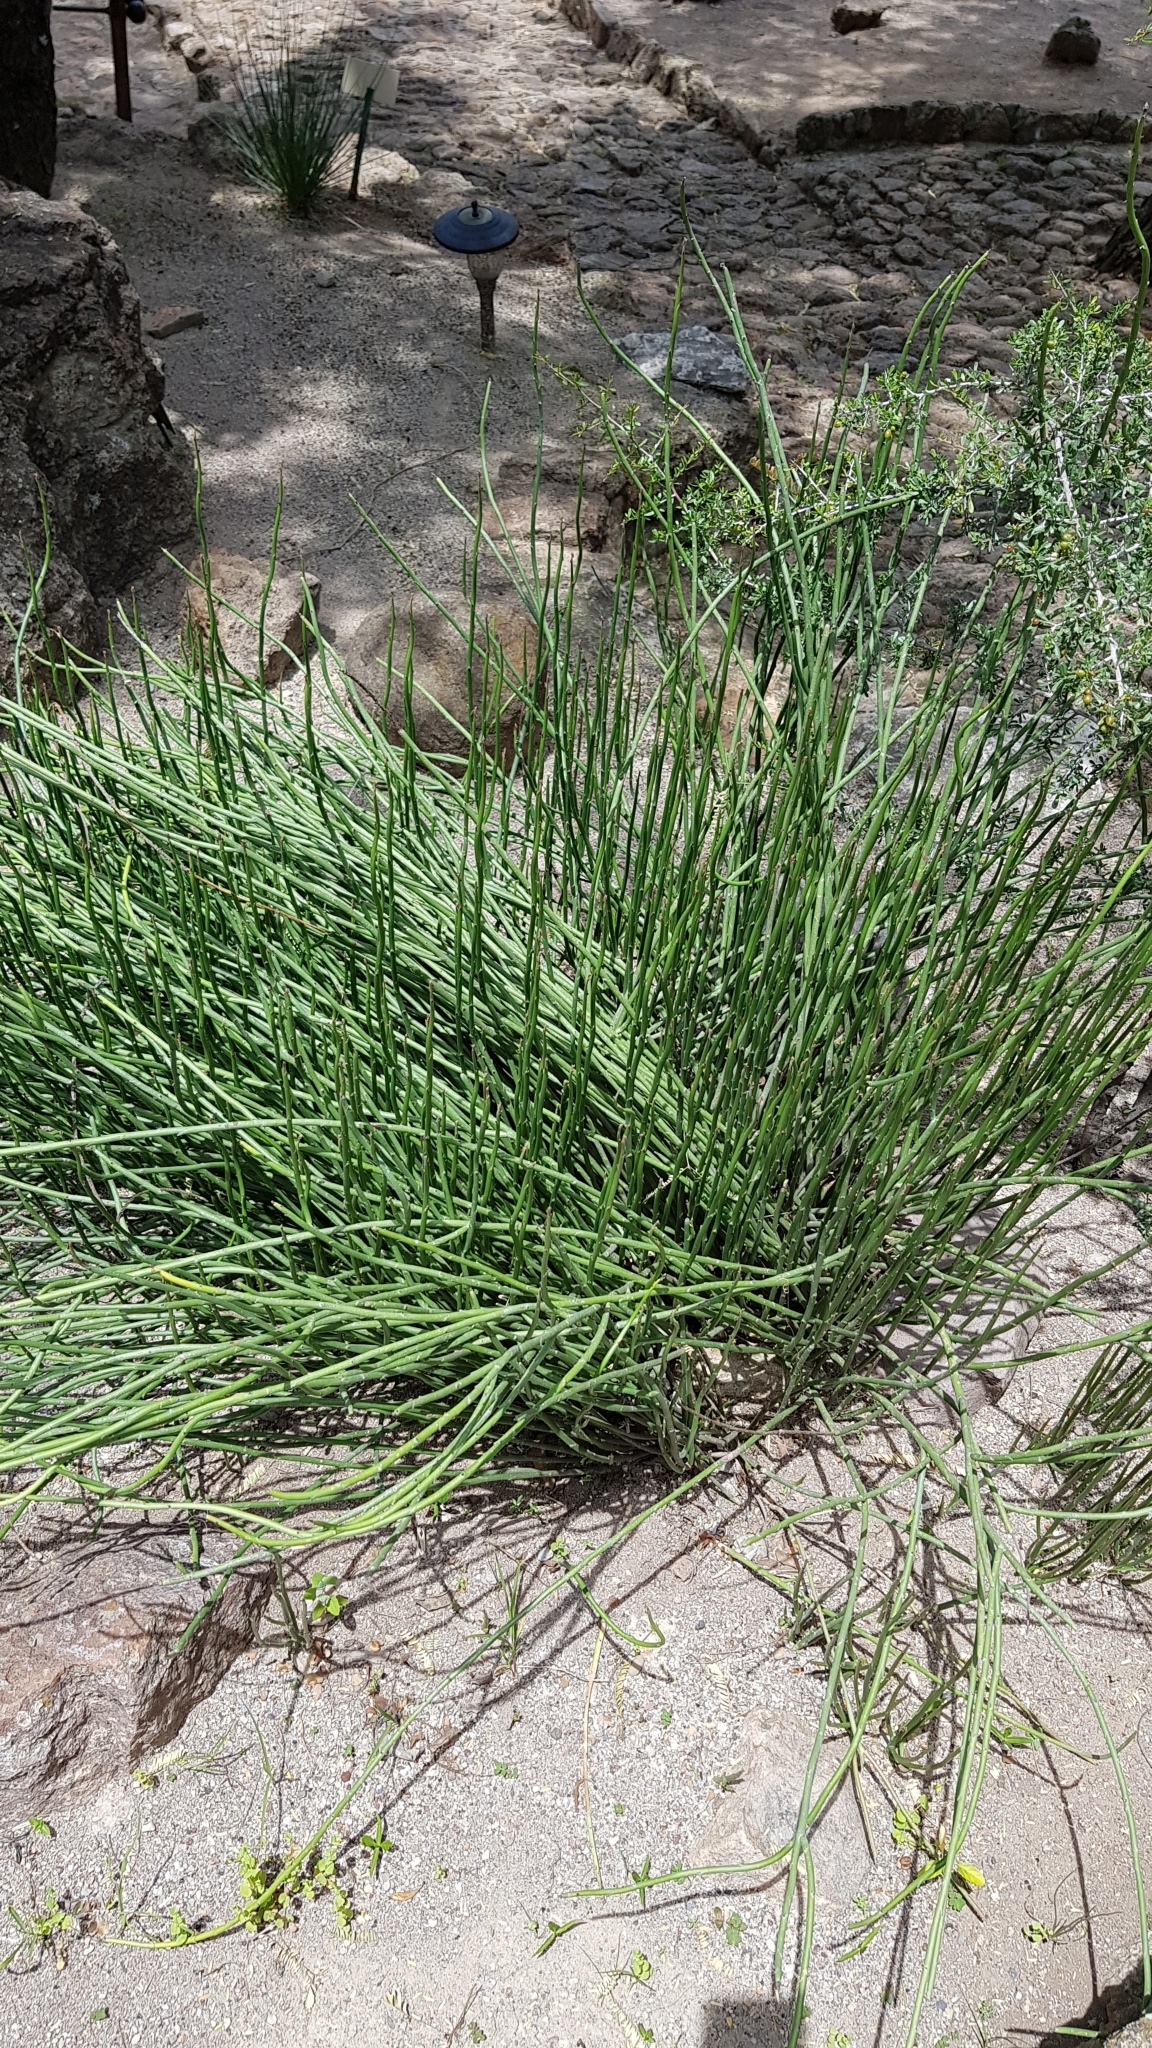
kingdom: Plantae
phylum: Tracheophyta
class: Magnoliopsida
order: Malpighiales
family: Euphorbiaceae
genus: Euphorbia
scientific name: Euphorbia antisyphilitica
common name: Candelilla
